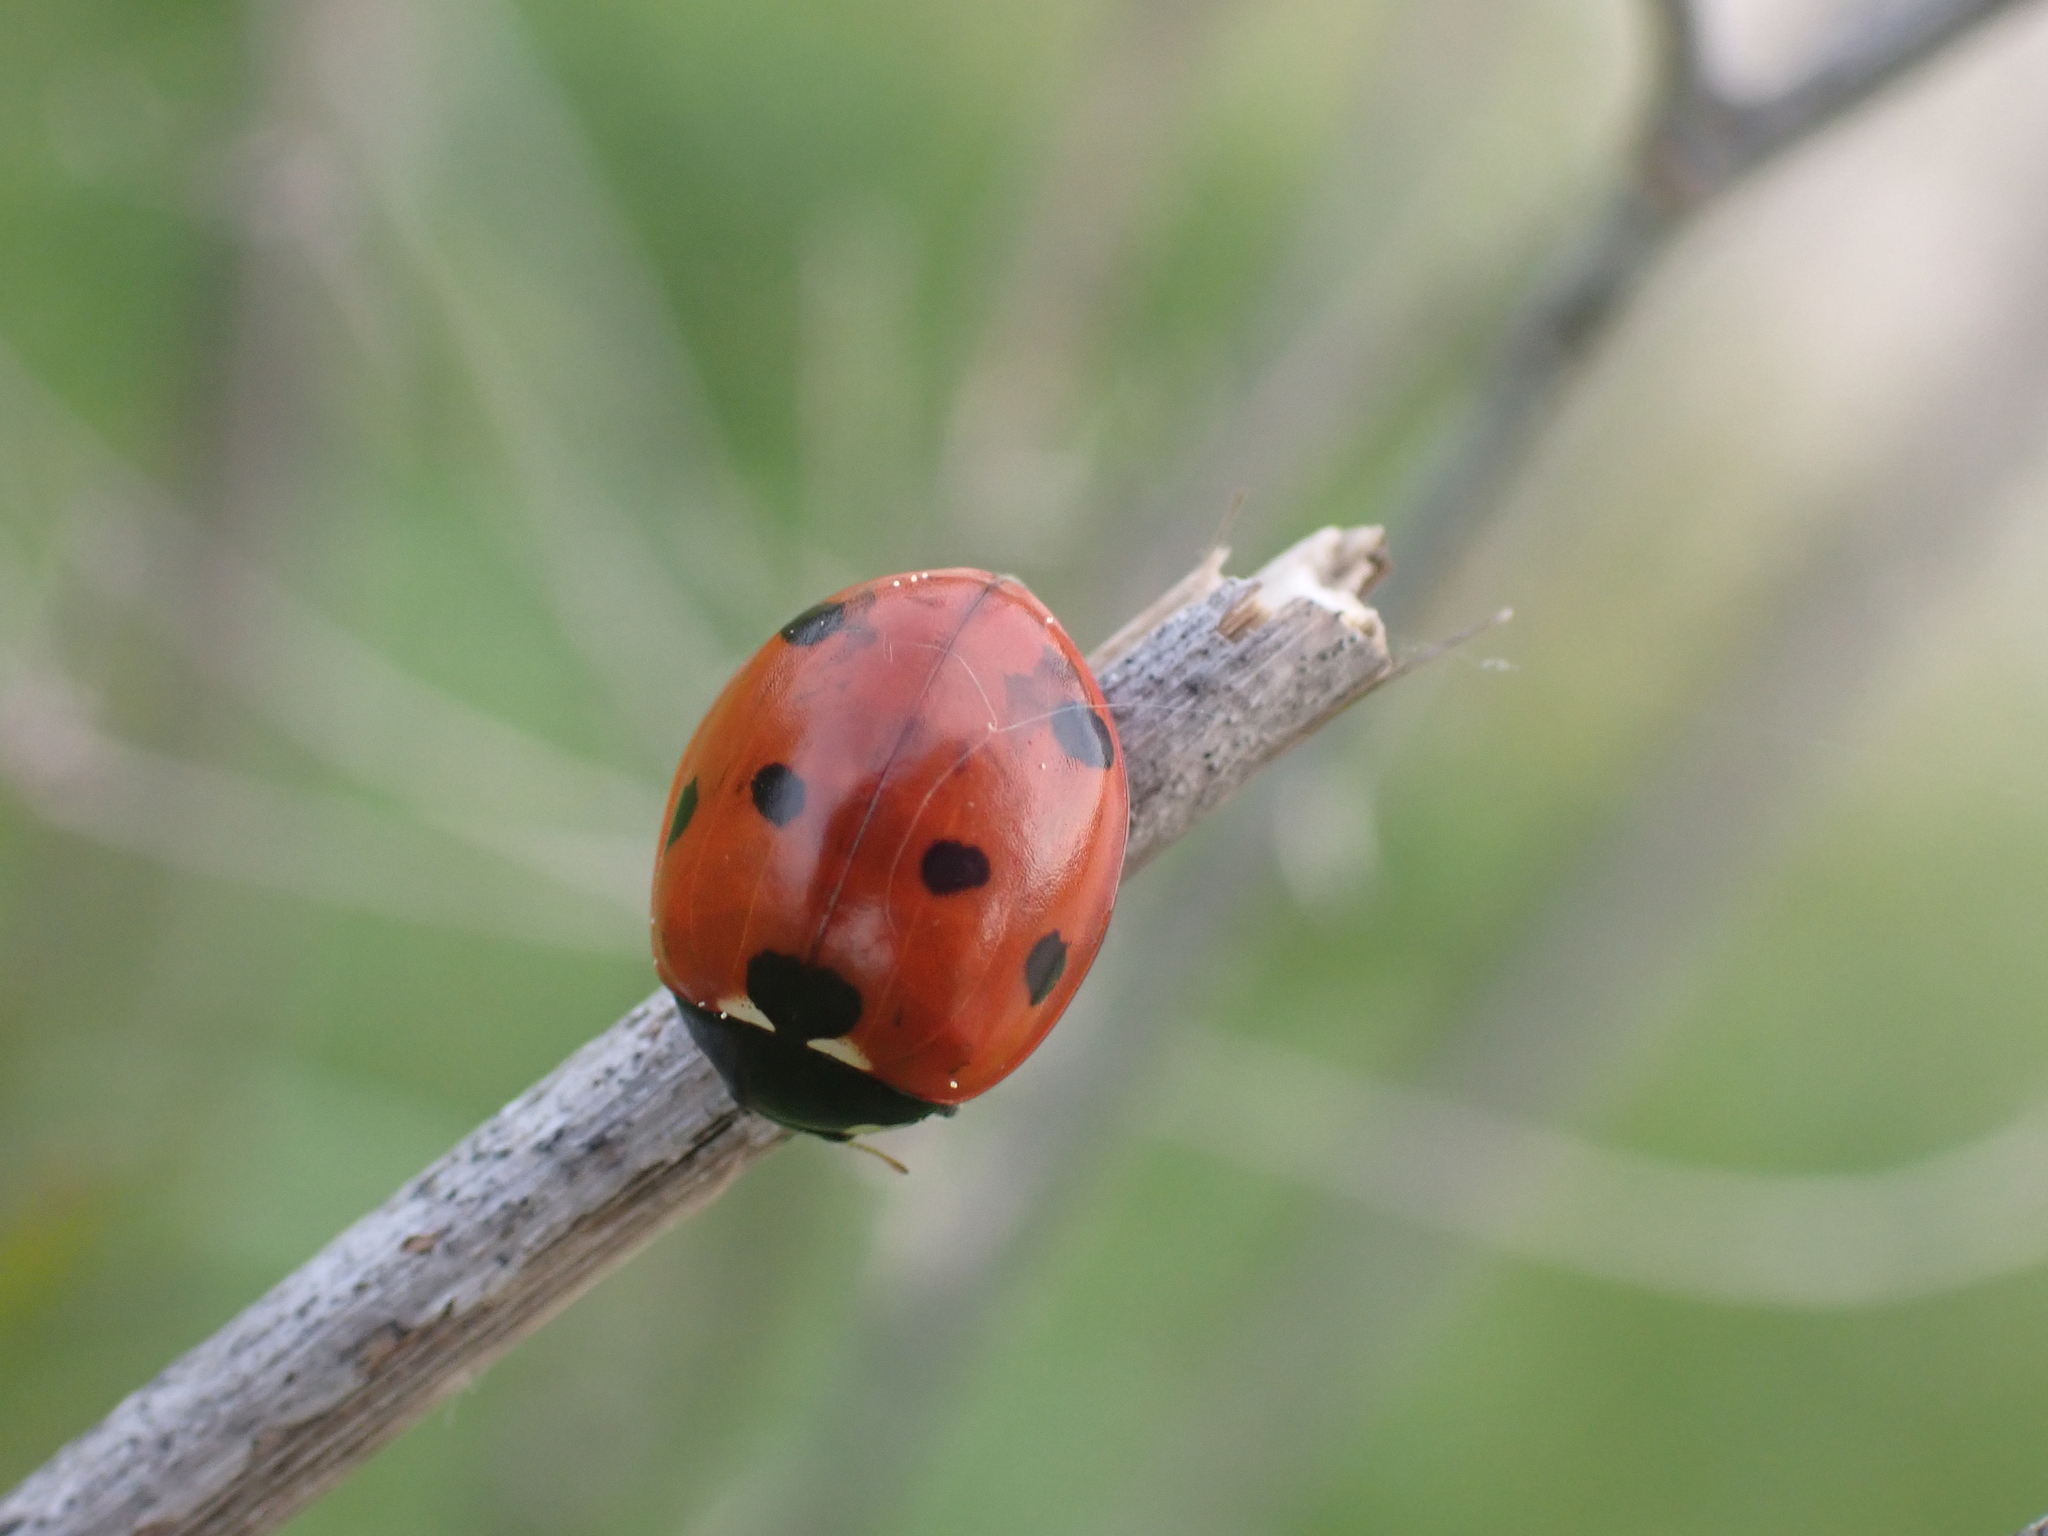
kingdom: Animalia
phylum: Arthropoda
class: Insecta
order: Coleoptera
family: Coccinellidae
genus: Coccinella
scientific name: Coccinella septempunctata
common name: Sevenspotted lady beetle
